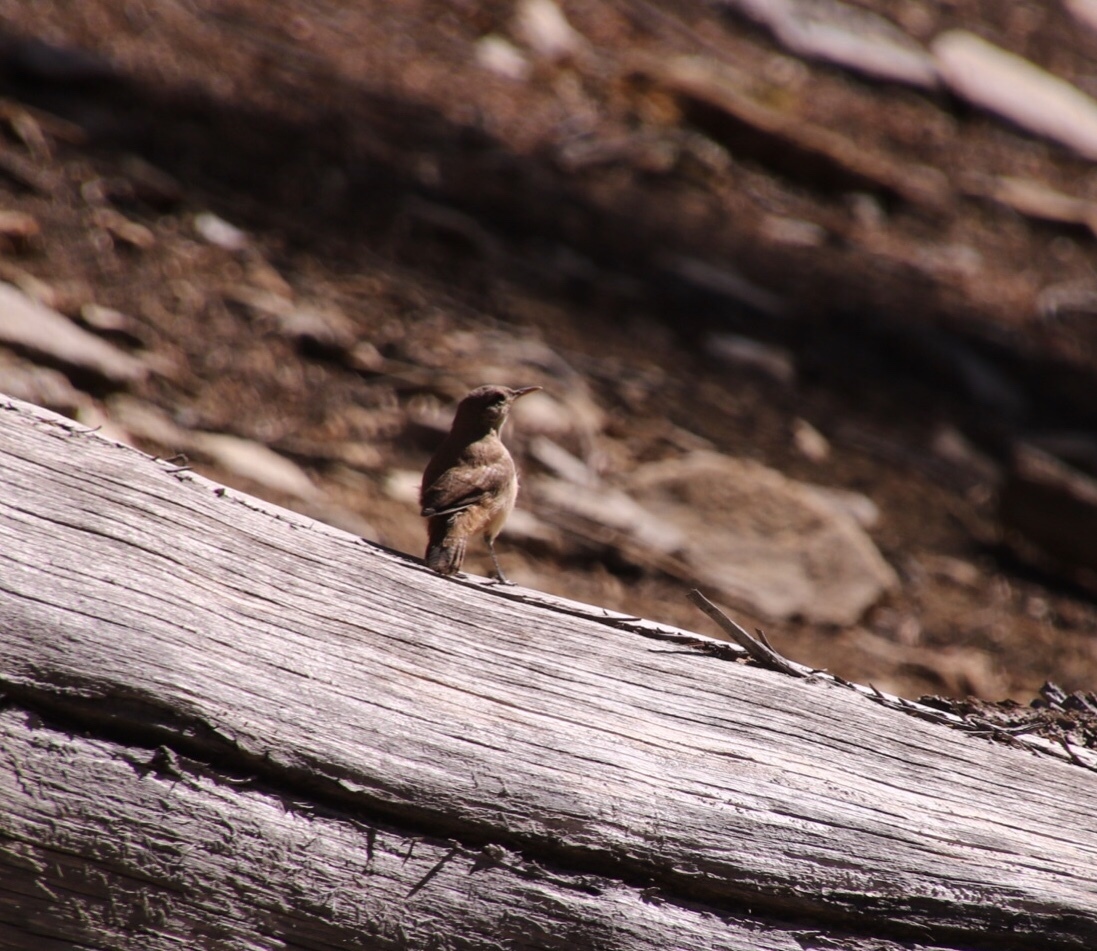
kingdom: Animalia
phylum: Chordata
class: Aves
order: Passeriformes
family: Troglodytidae
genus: Salpinctes
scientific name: Salpinctes obsoletus
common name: Rock wren
